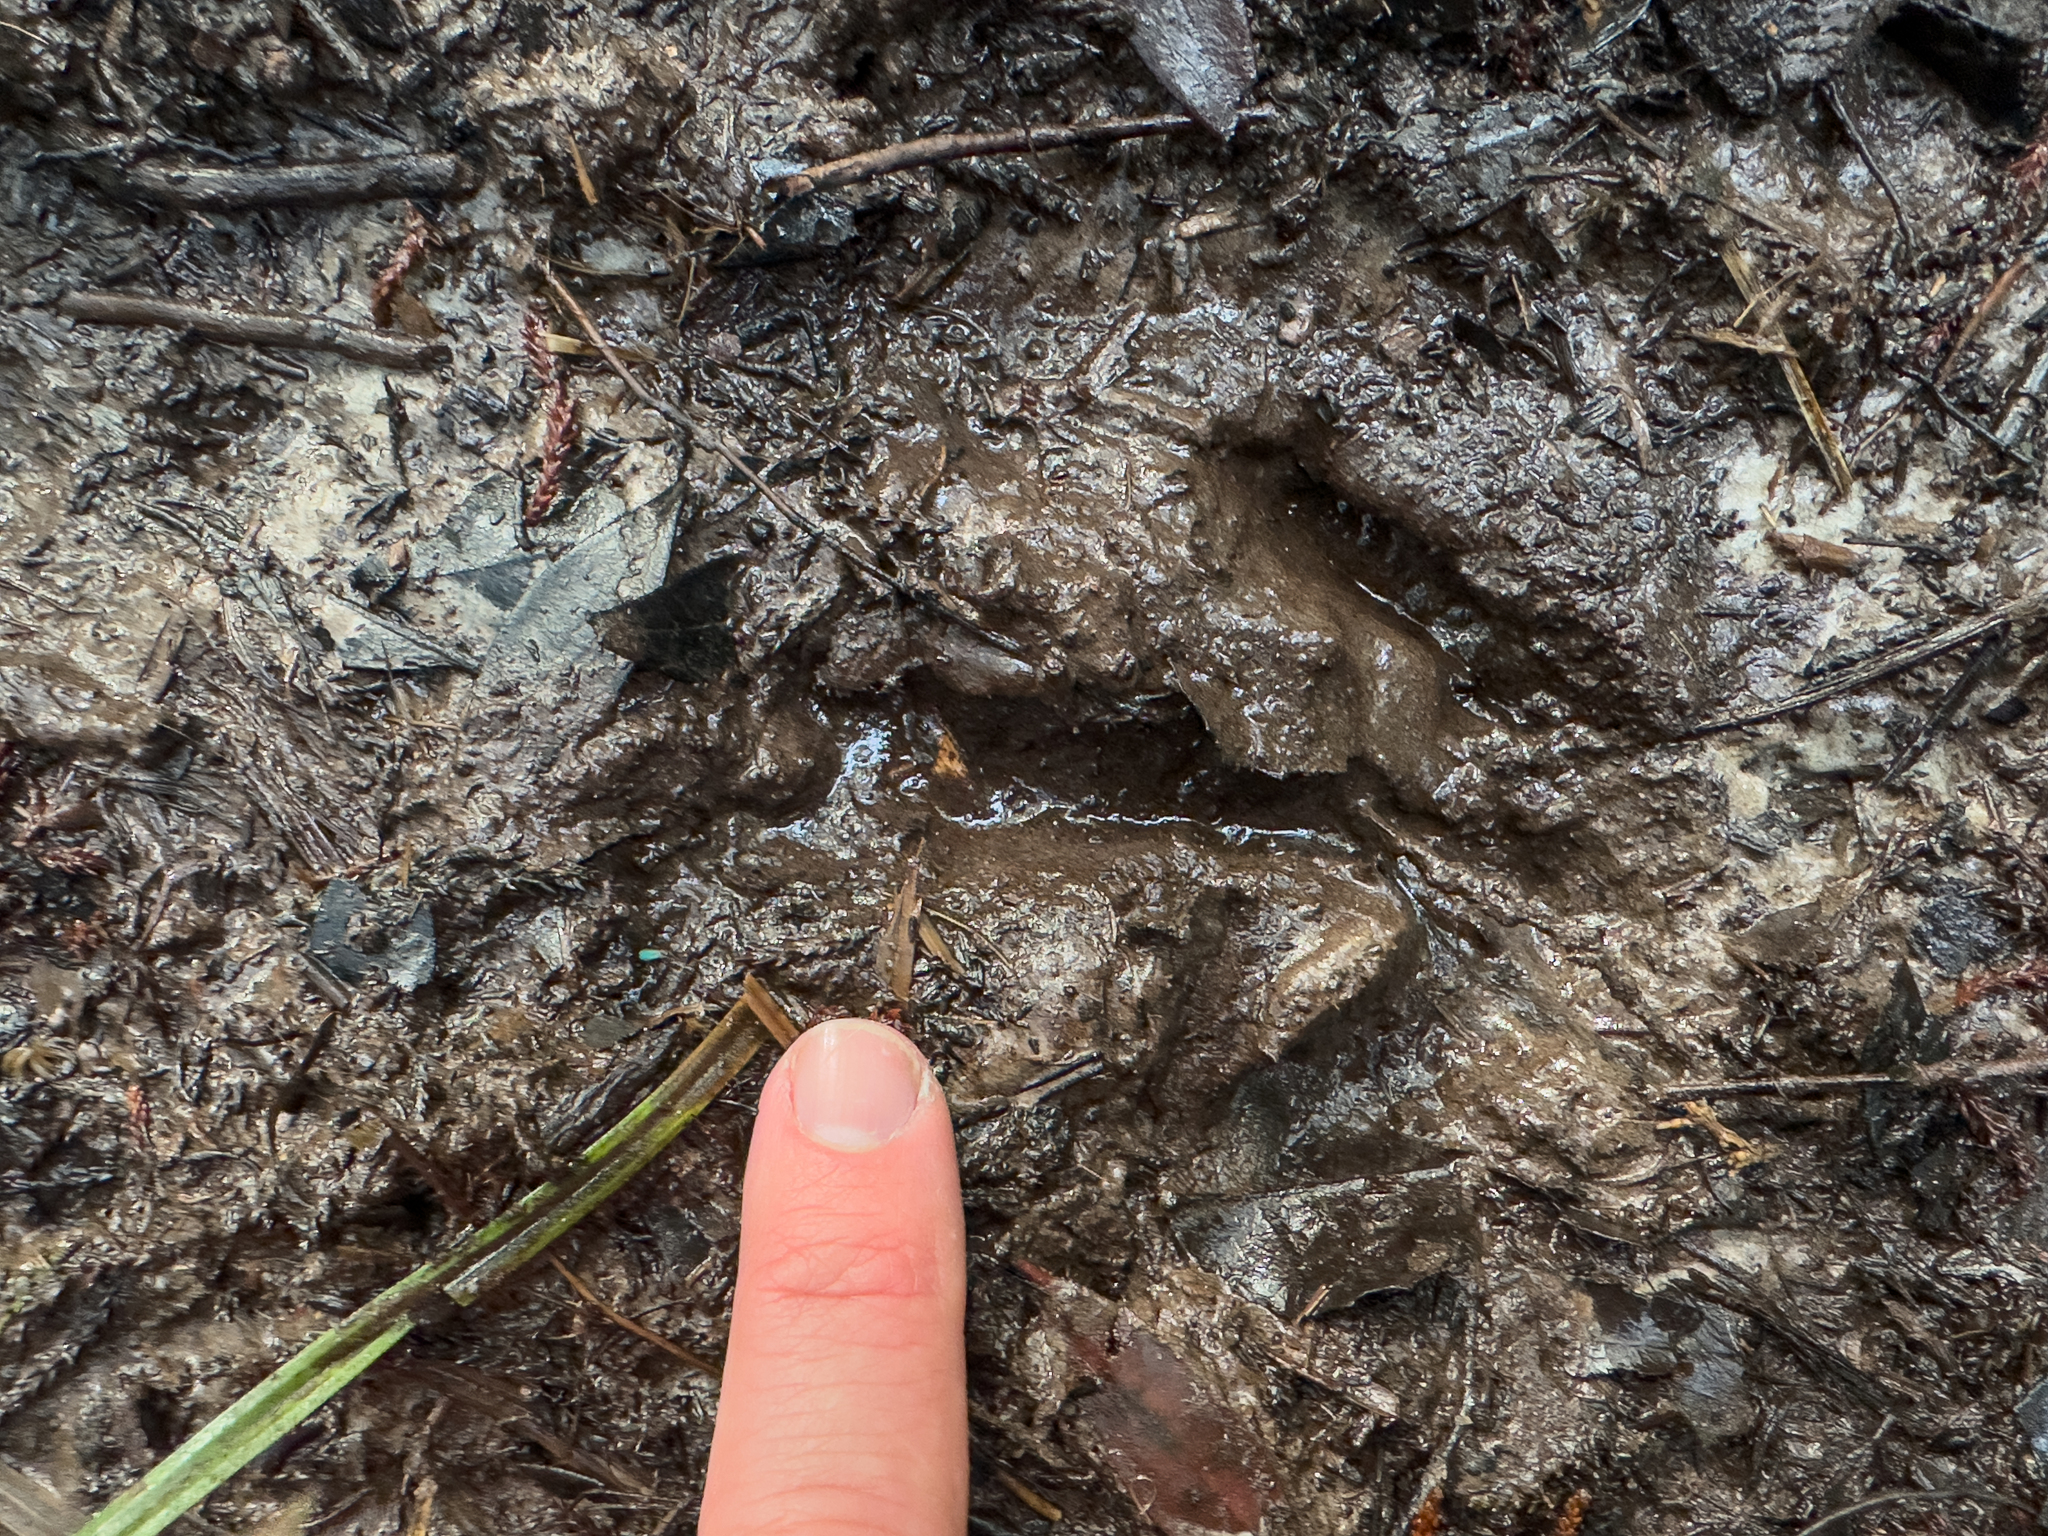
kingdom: Animalia
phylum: Chordata
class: Aves
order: Apterygiformes
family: Apterygidae
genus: Apteryx
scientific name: Apteryx australis
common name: Southern brown kiwi
